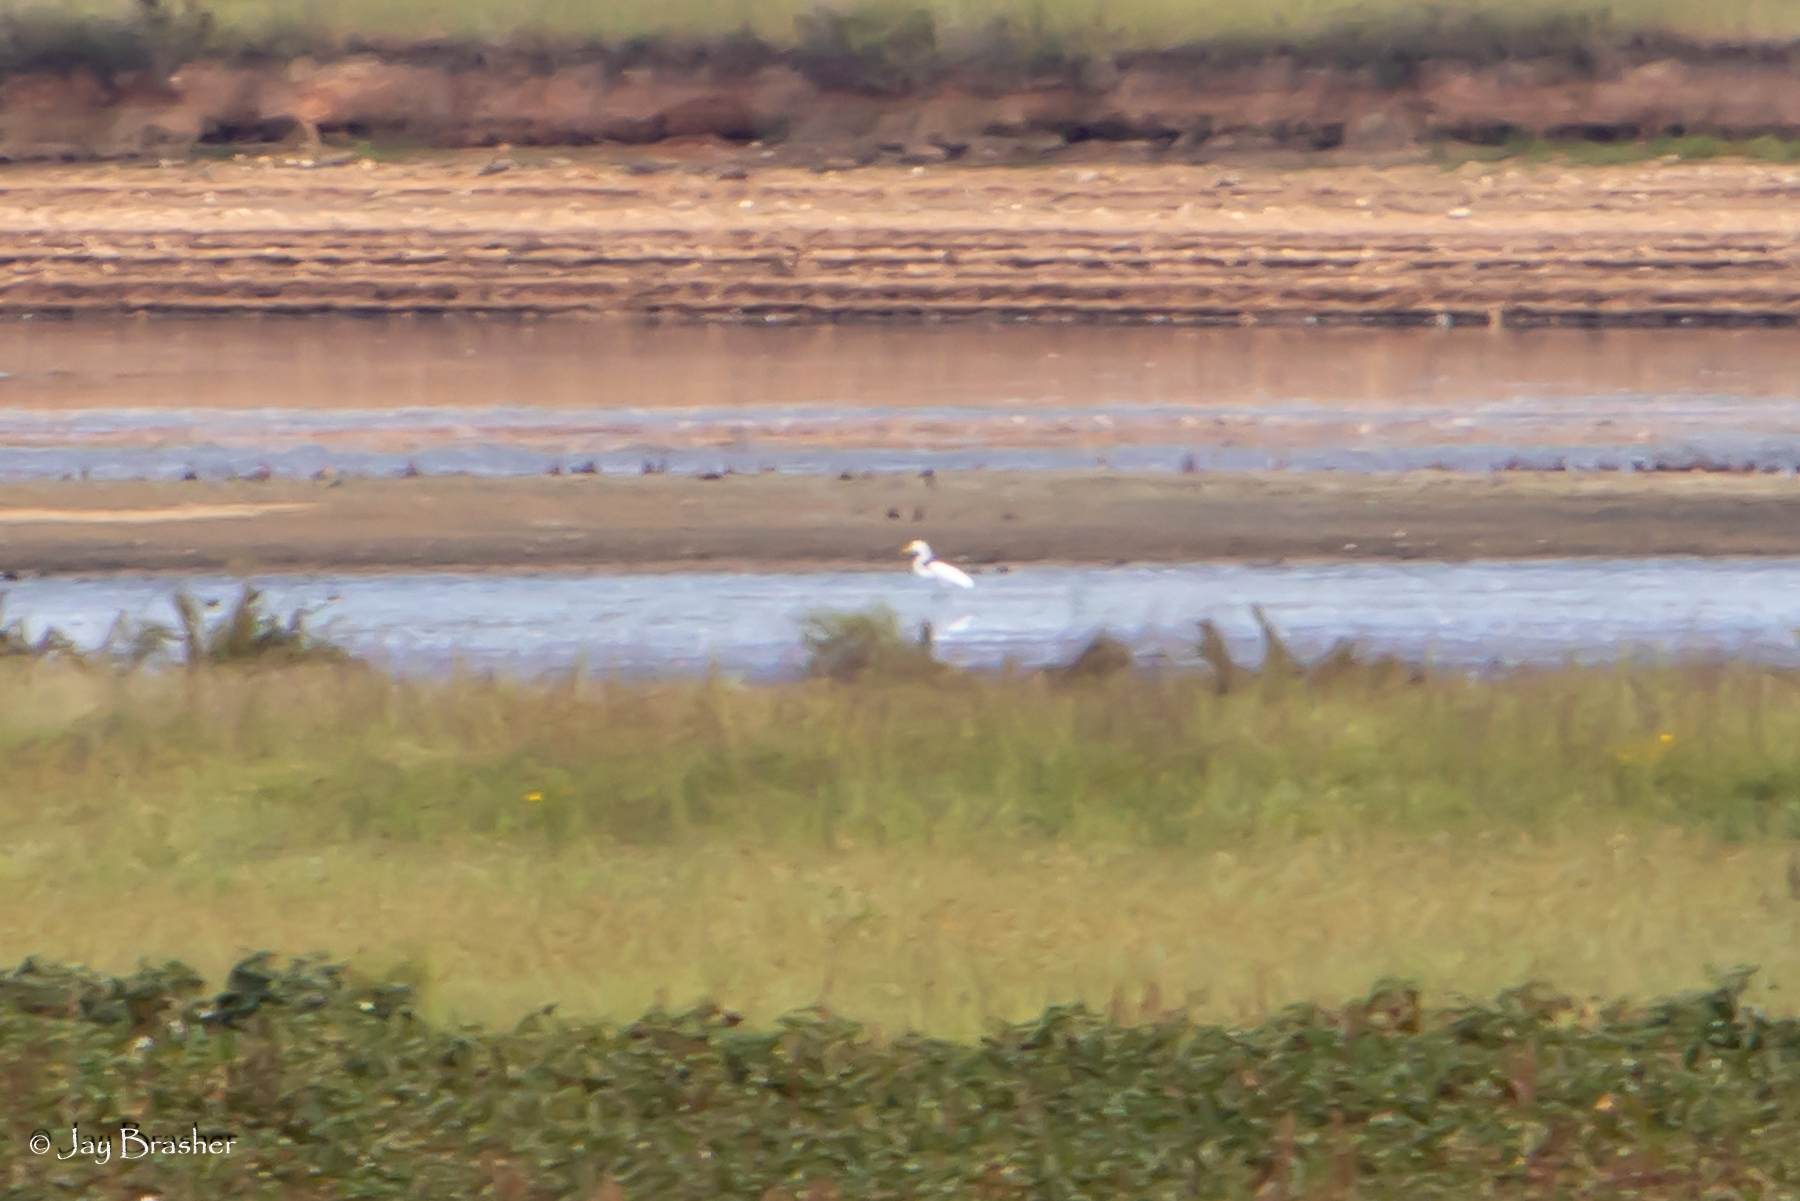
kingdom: Animalia
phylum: Chordata
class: Aves
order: Pelecaniformes
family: Ardeidae
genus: Ardea
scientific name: Ardea alba
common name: Great egret
